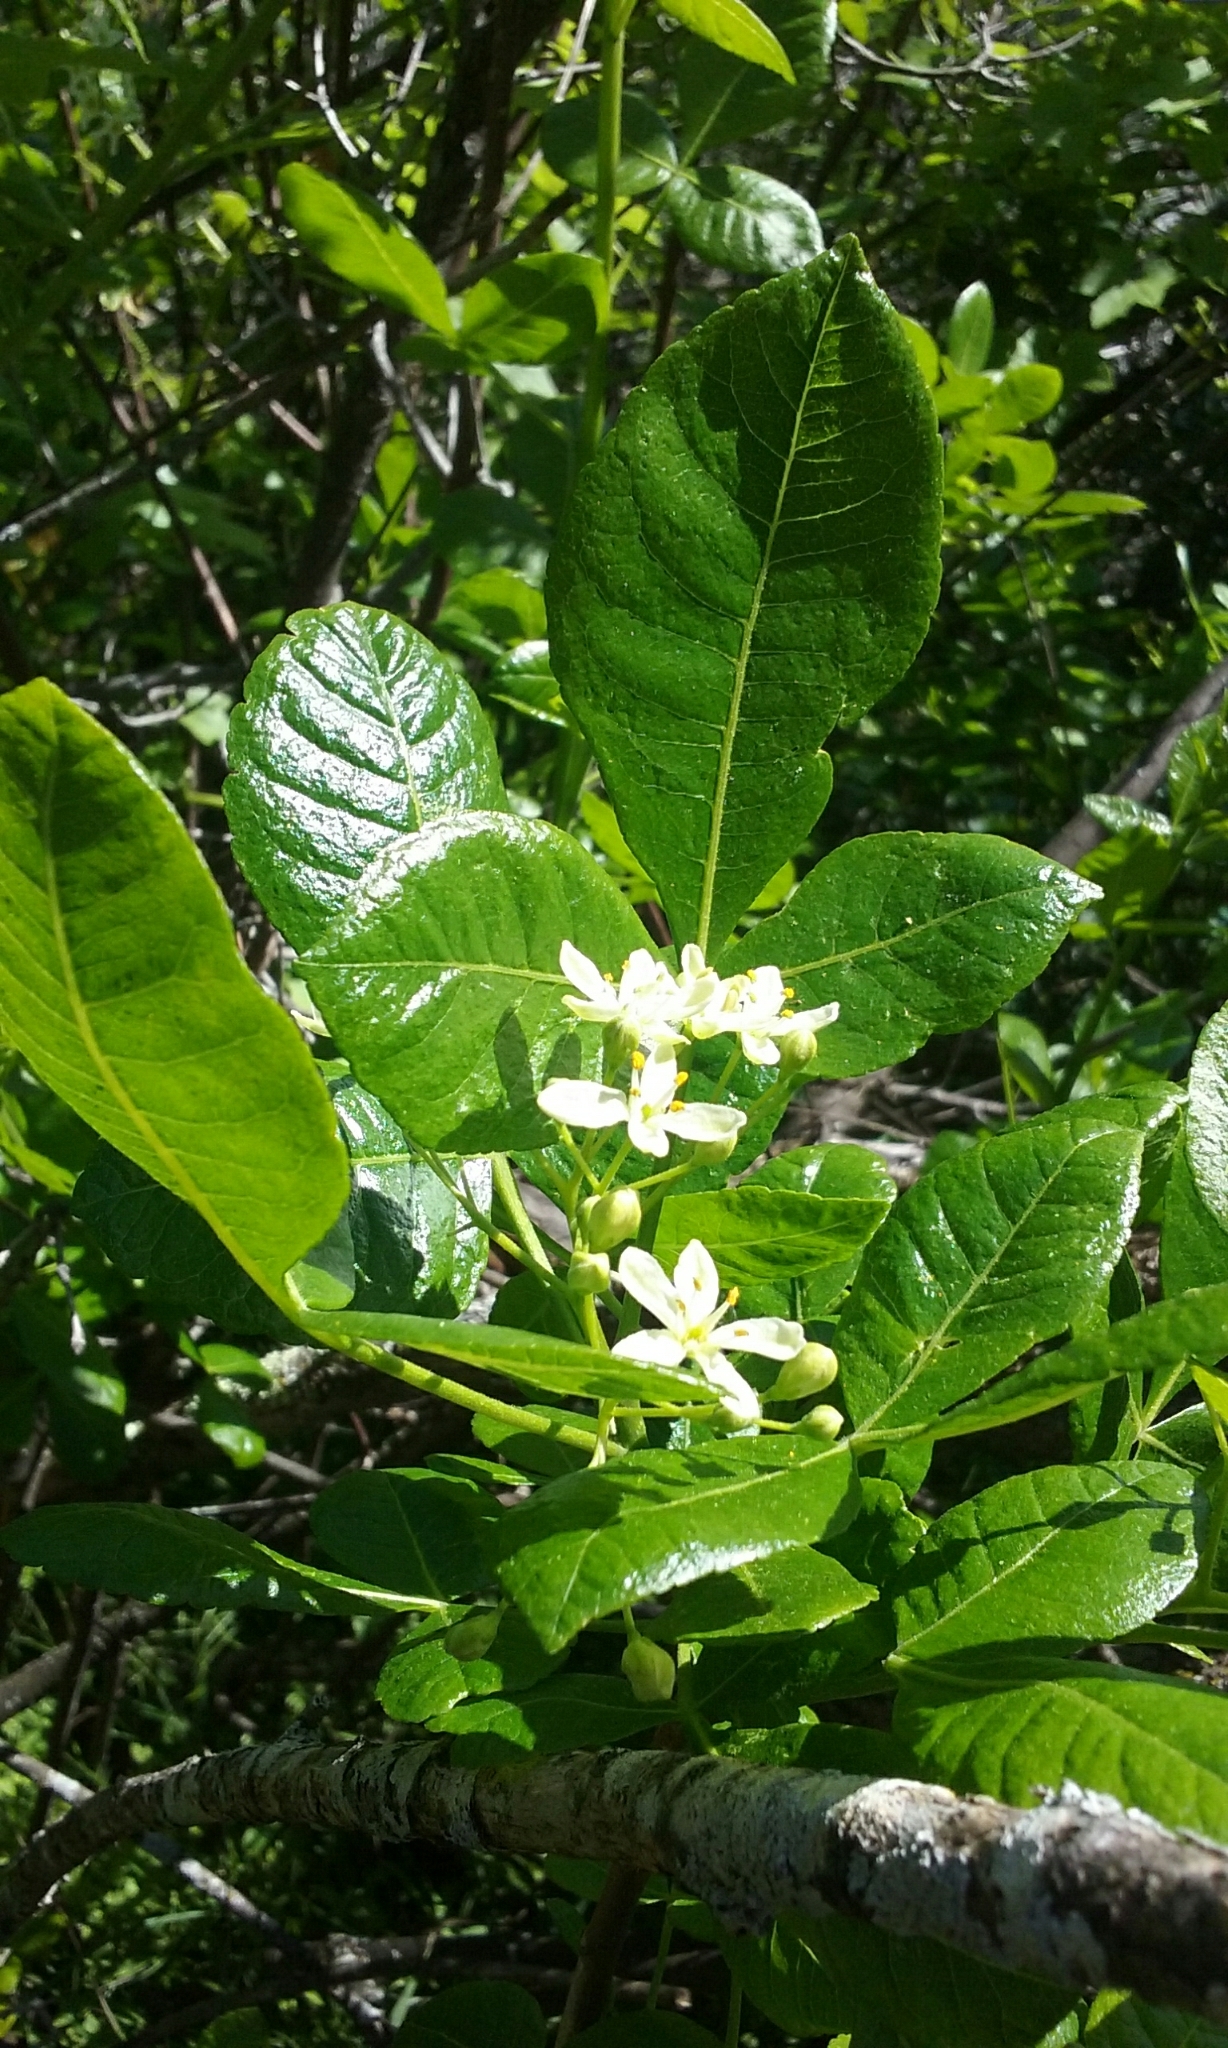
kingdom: Plantae
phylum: Tracheophyta
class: Magnoliopsida
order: Sapindales
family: Rutaceae
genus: Ptelea
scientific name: Ptelea crenulata
